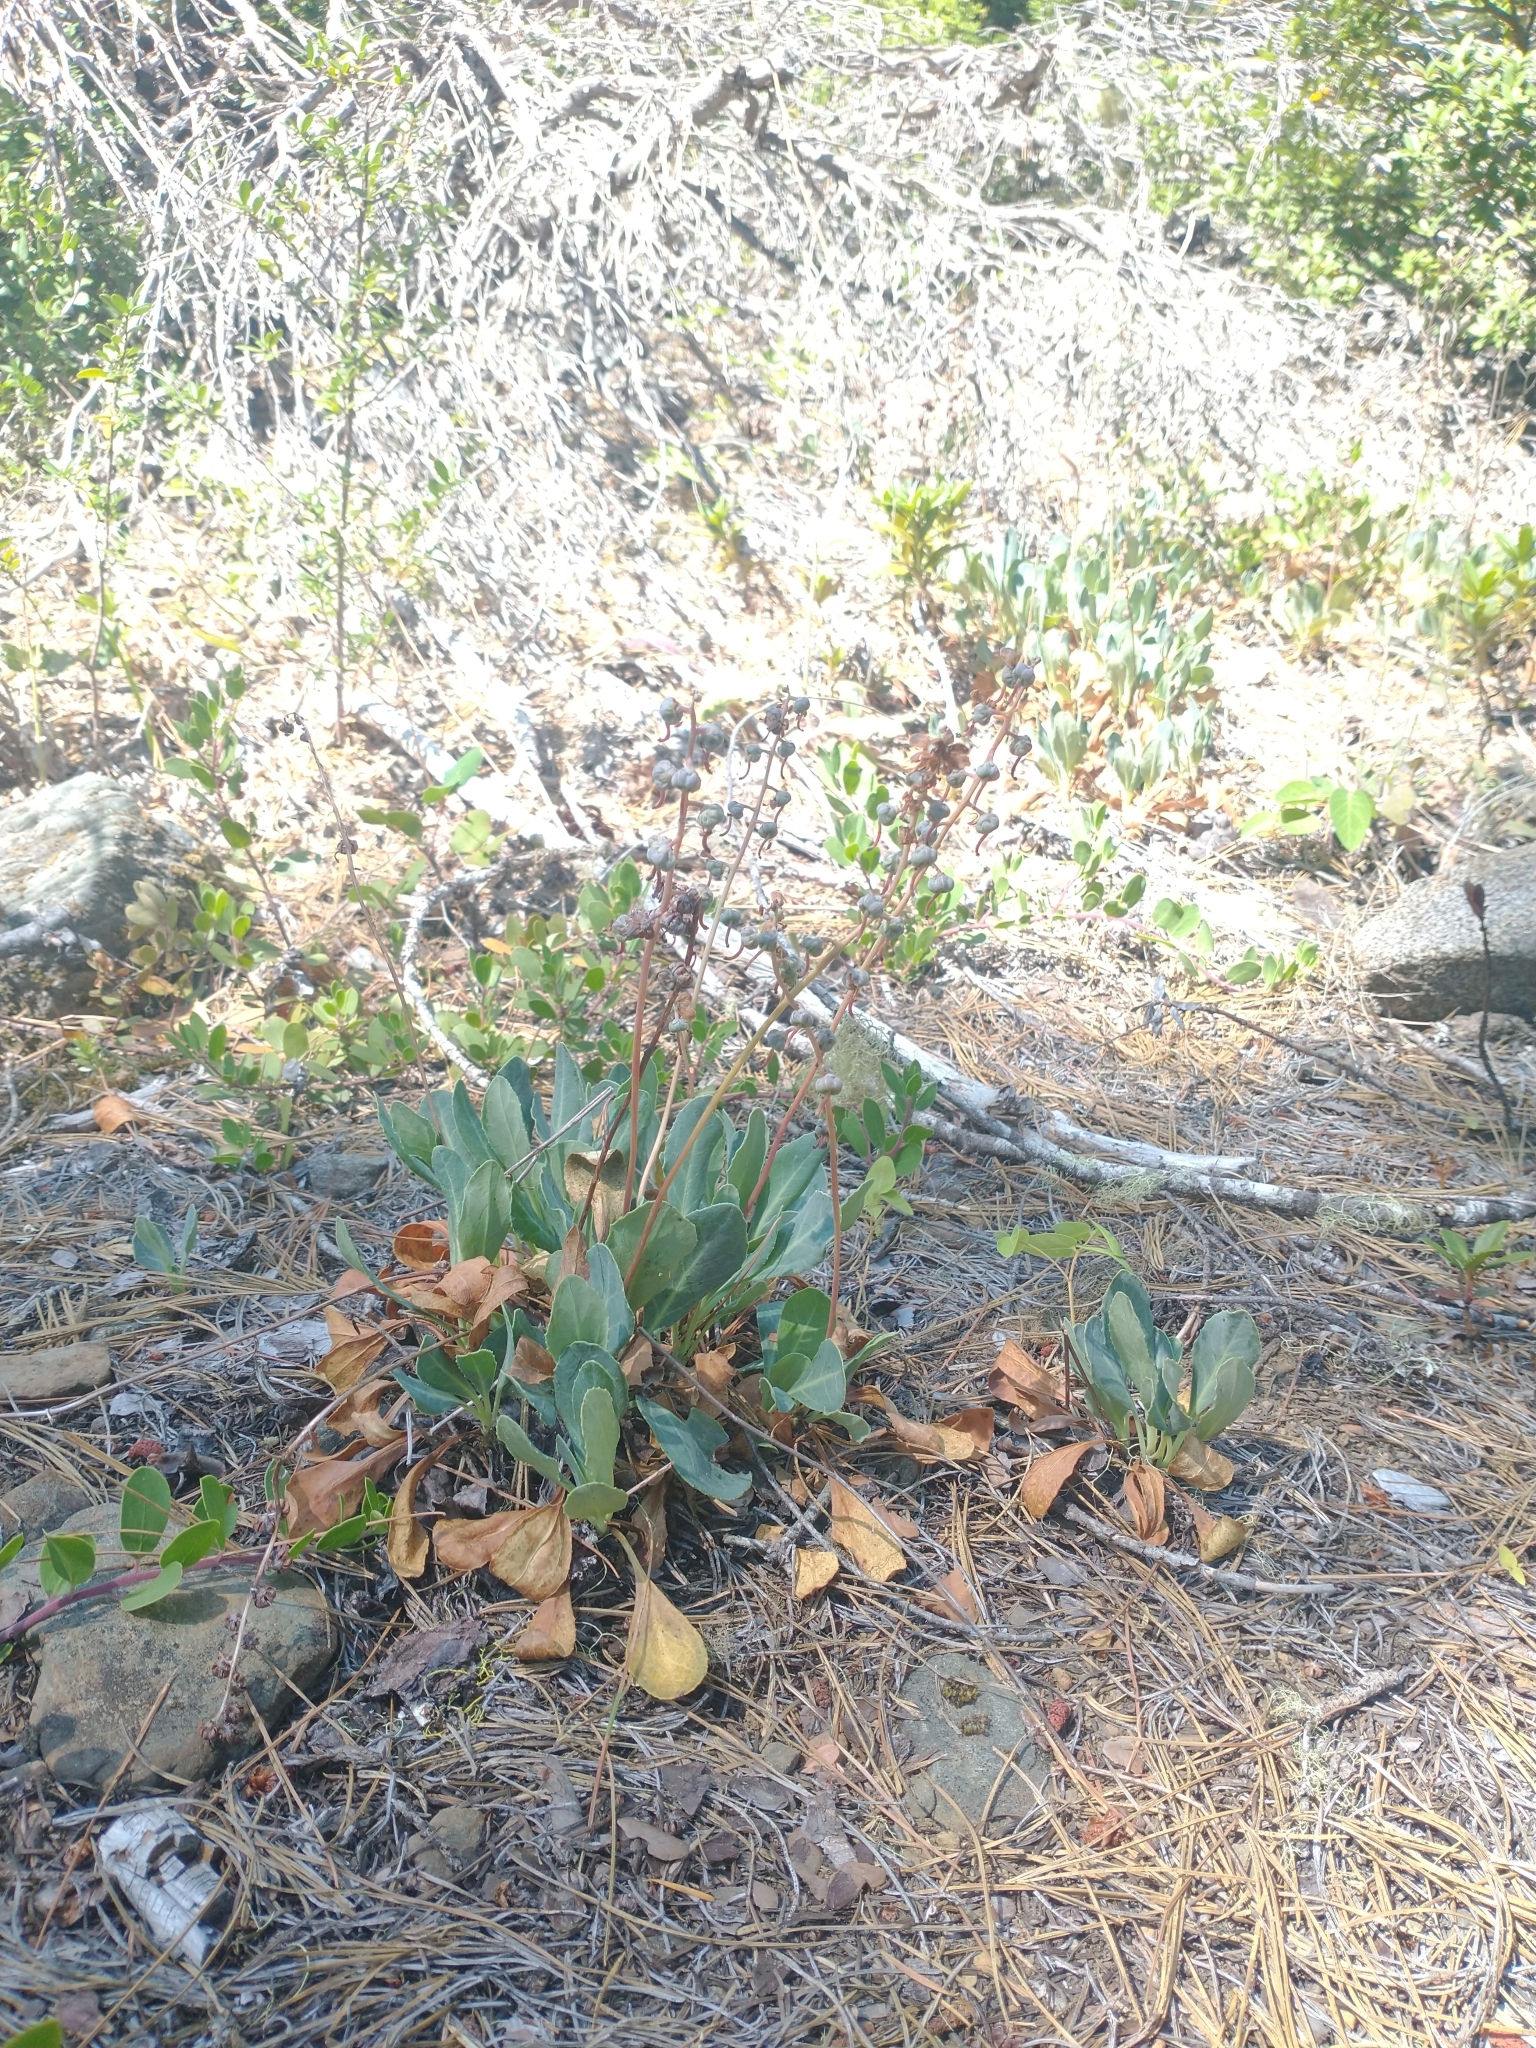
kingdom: Plantae
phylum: Tracheophyta
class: Magnoliopsida
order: Ericales
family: Ericaceae
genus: Pyrola
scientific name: Pyrola dentata
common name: Tooth-leaved wintergreen
